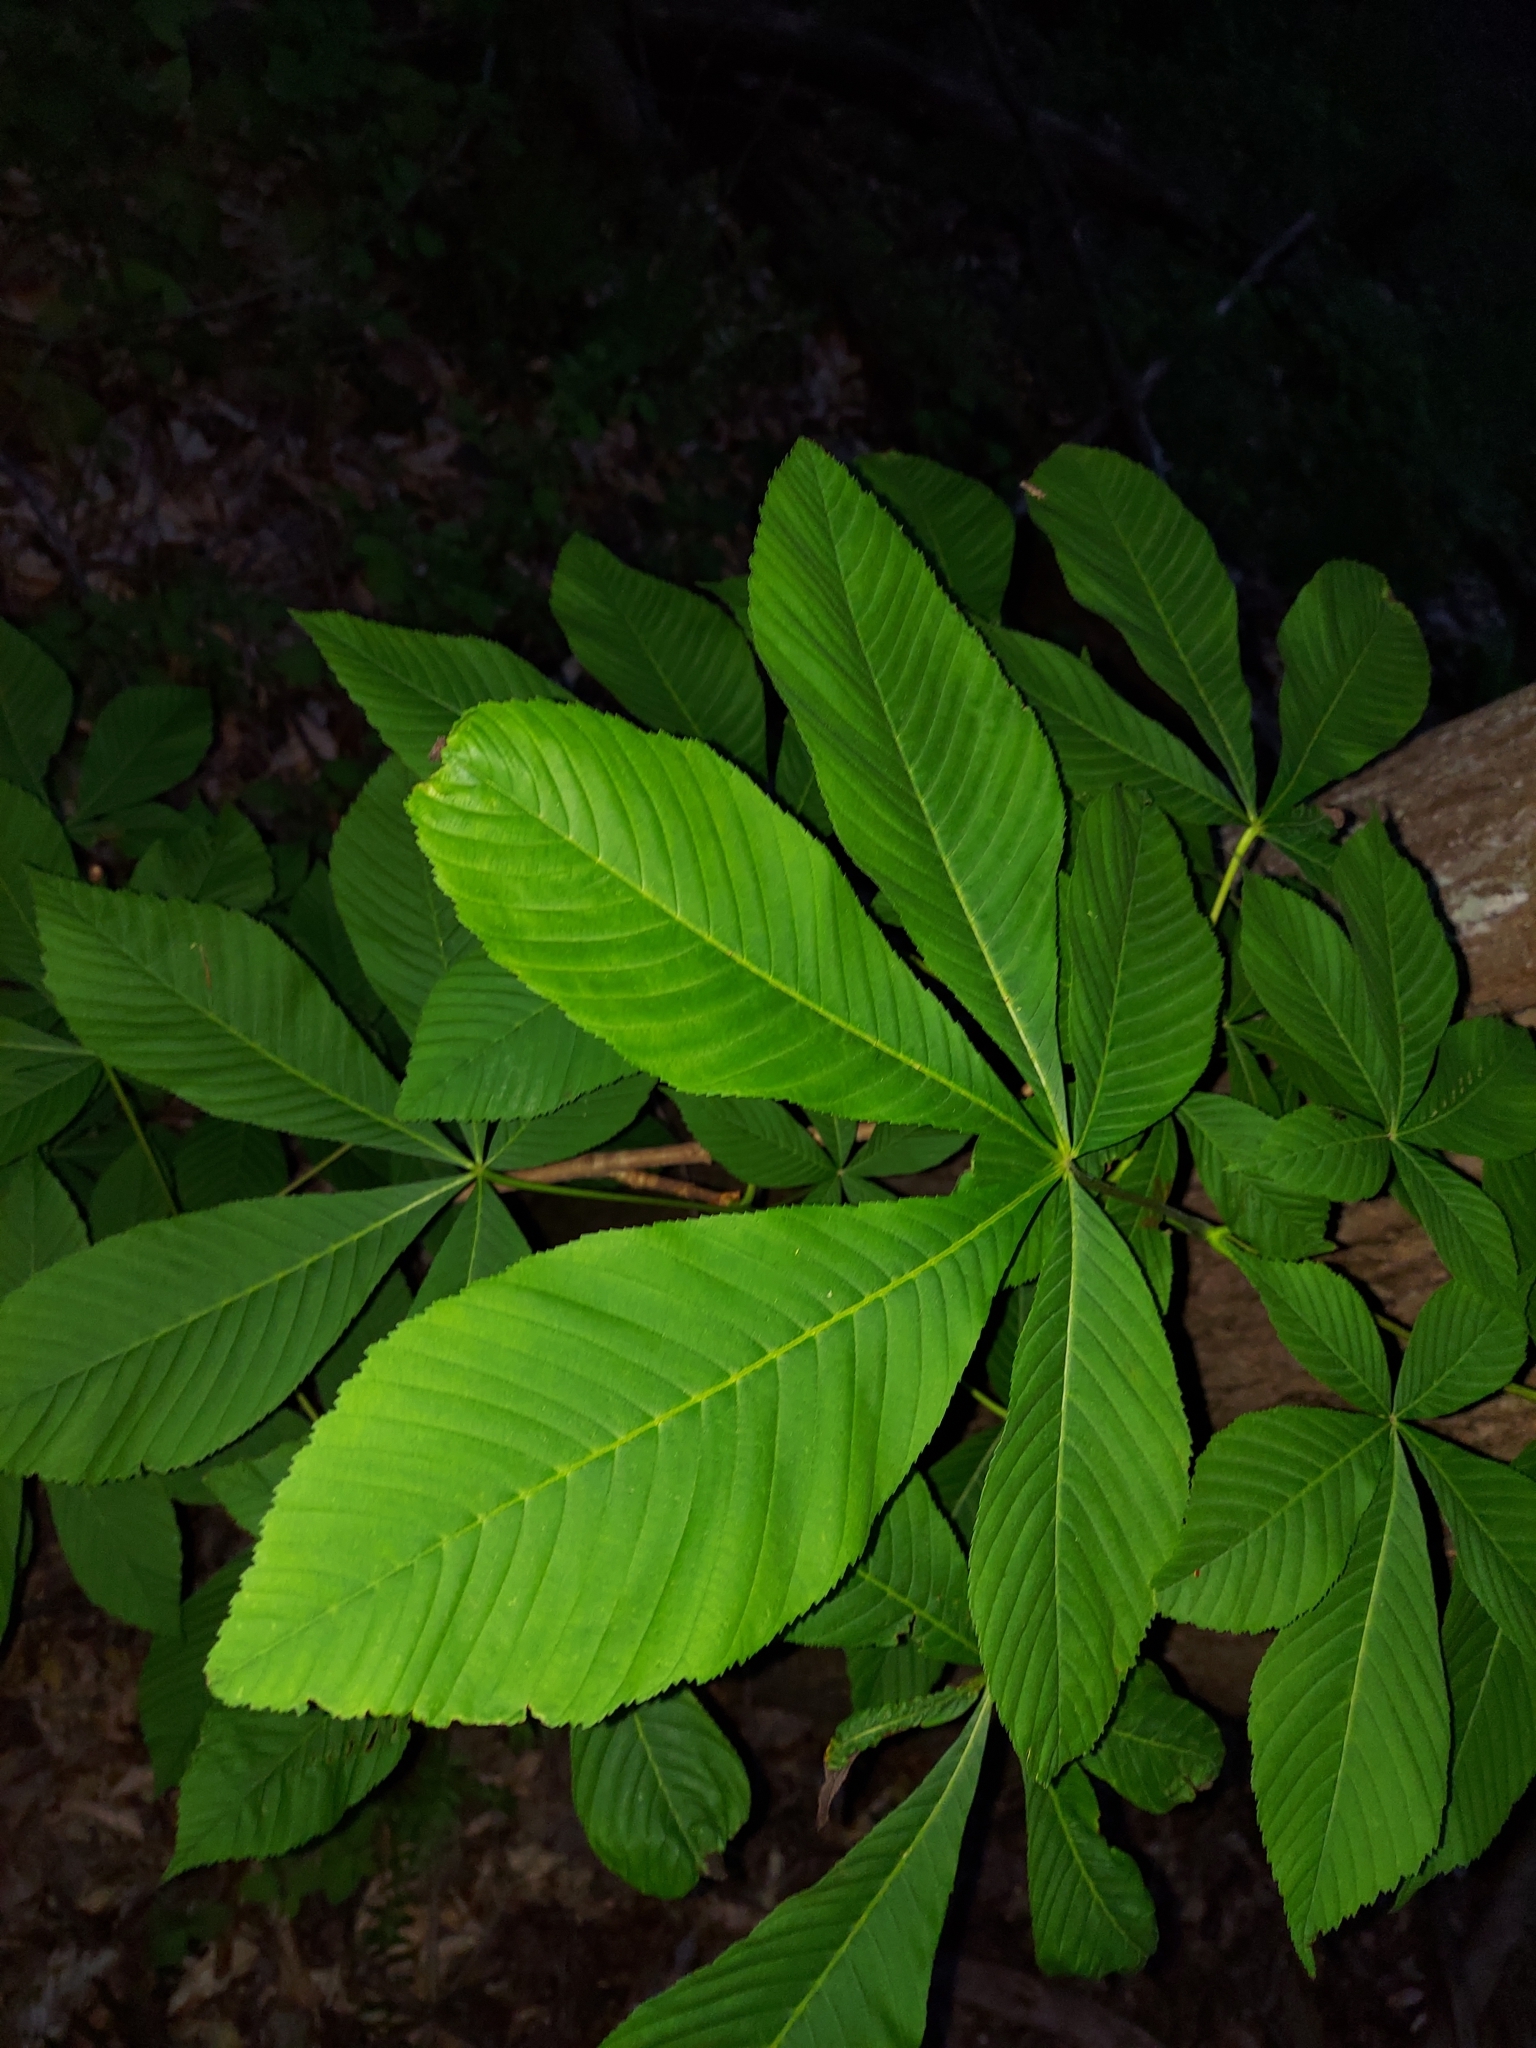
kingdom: Plantae
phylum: Tracheophyta
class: Magnoliopsida
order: Sapindales
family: Sapindaceae
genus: Aesculus
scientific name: Aesculus flava
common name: Yellow buckeye
